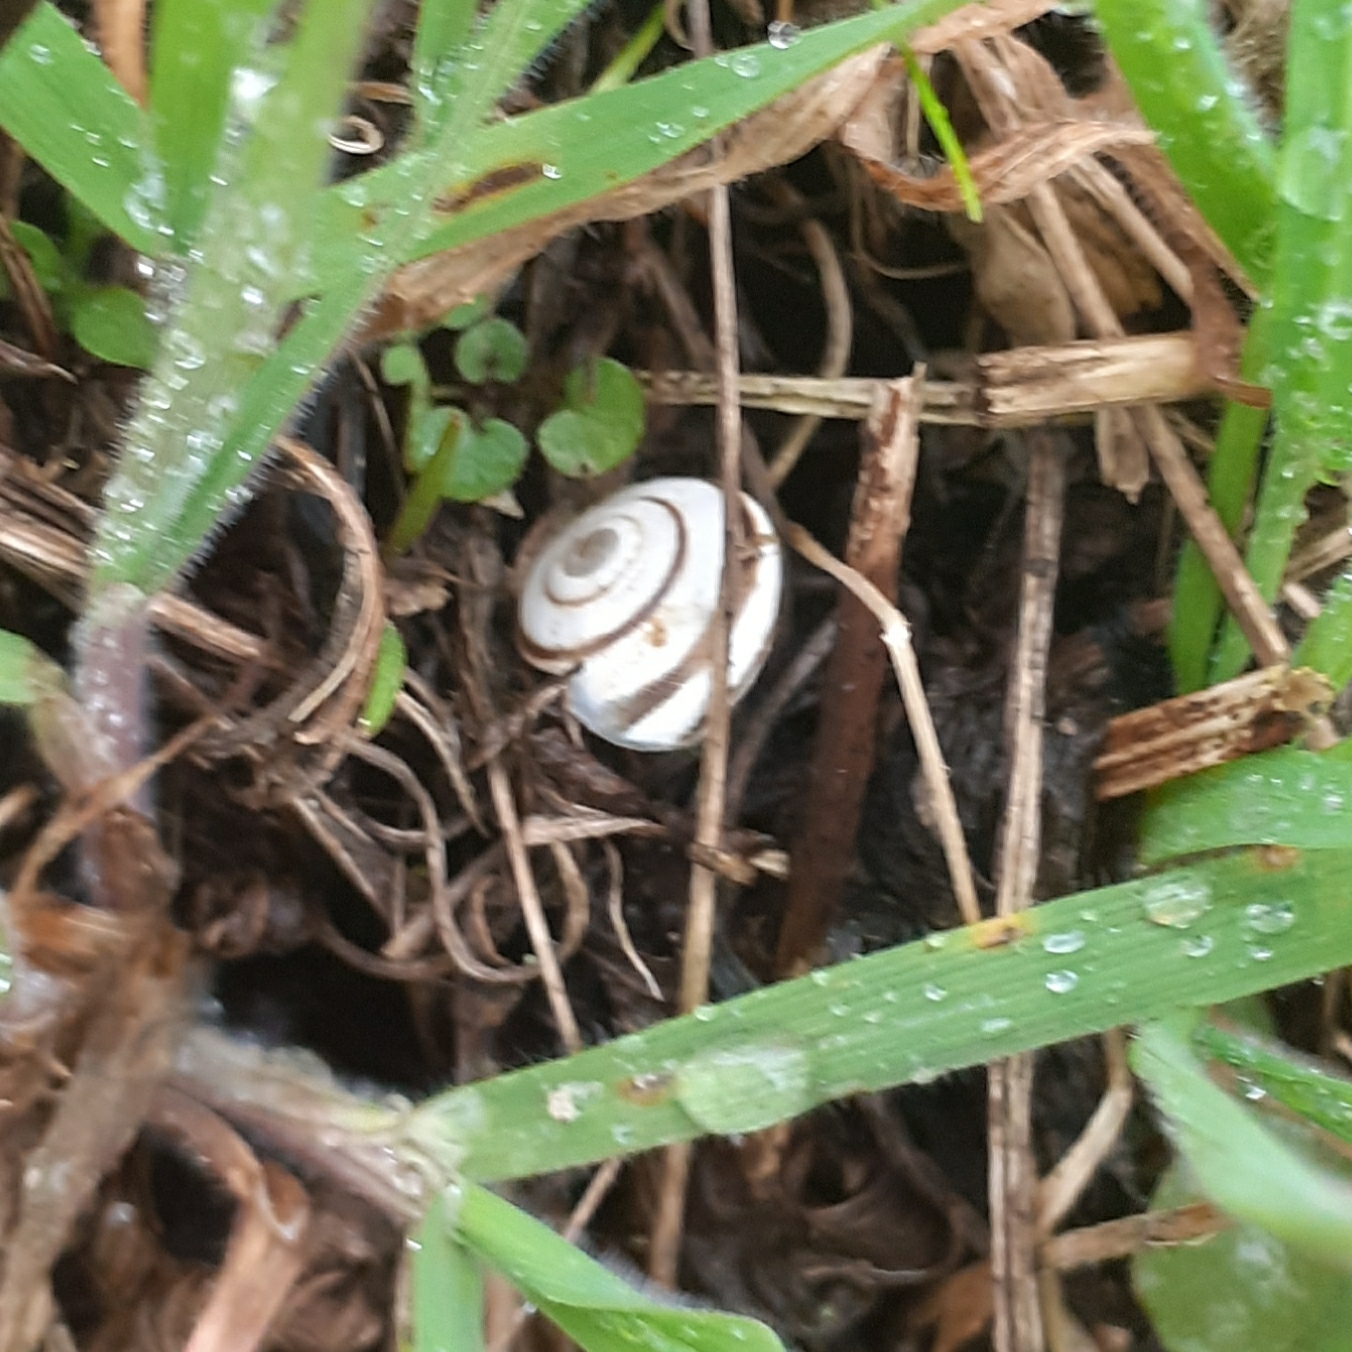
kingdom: Animalia
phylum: Mollusca
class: Gastropoda
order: Stylommatophora
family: Geomitridae
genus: Cernuella
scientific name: Cernuella virgata
